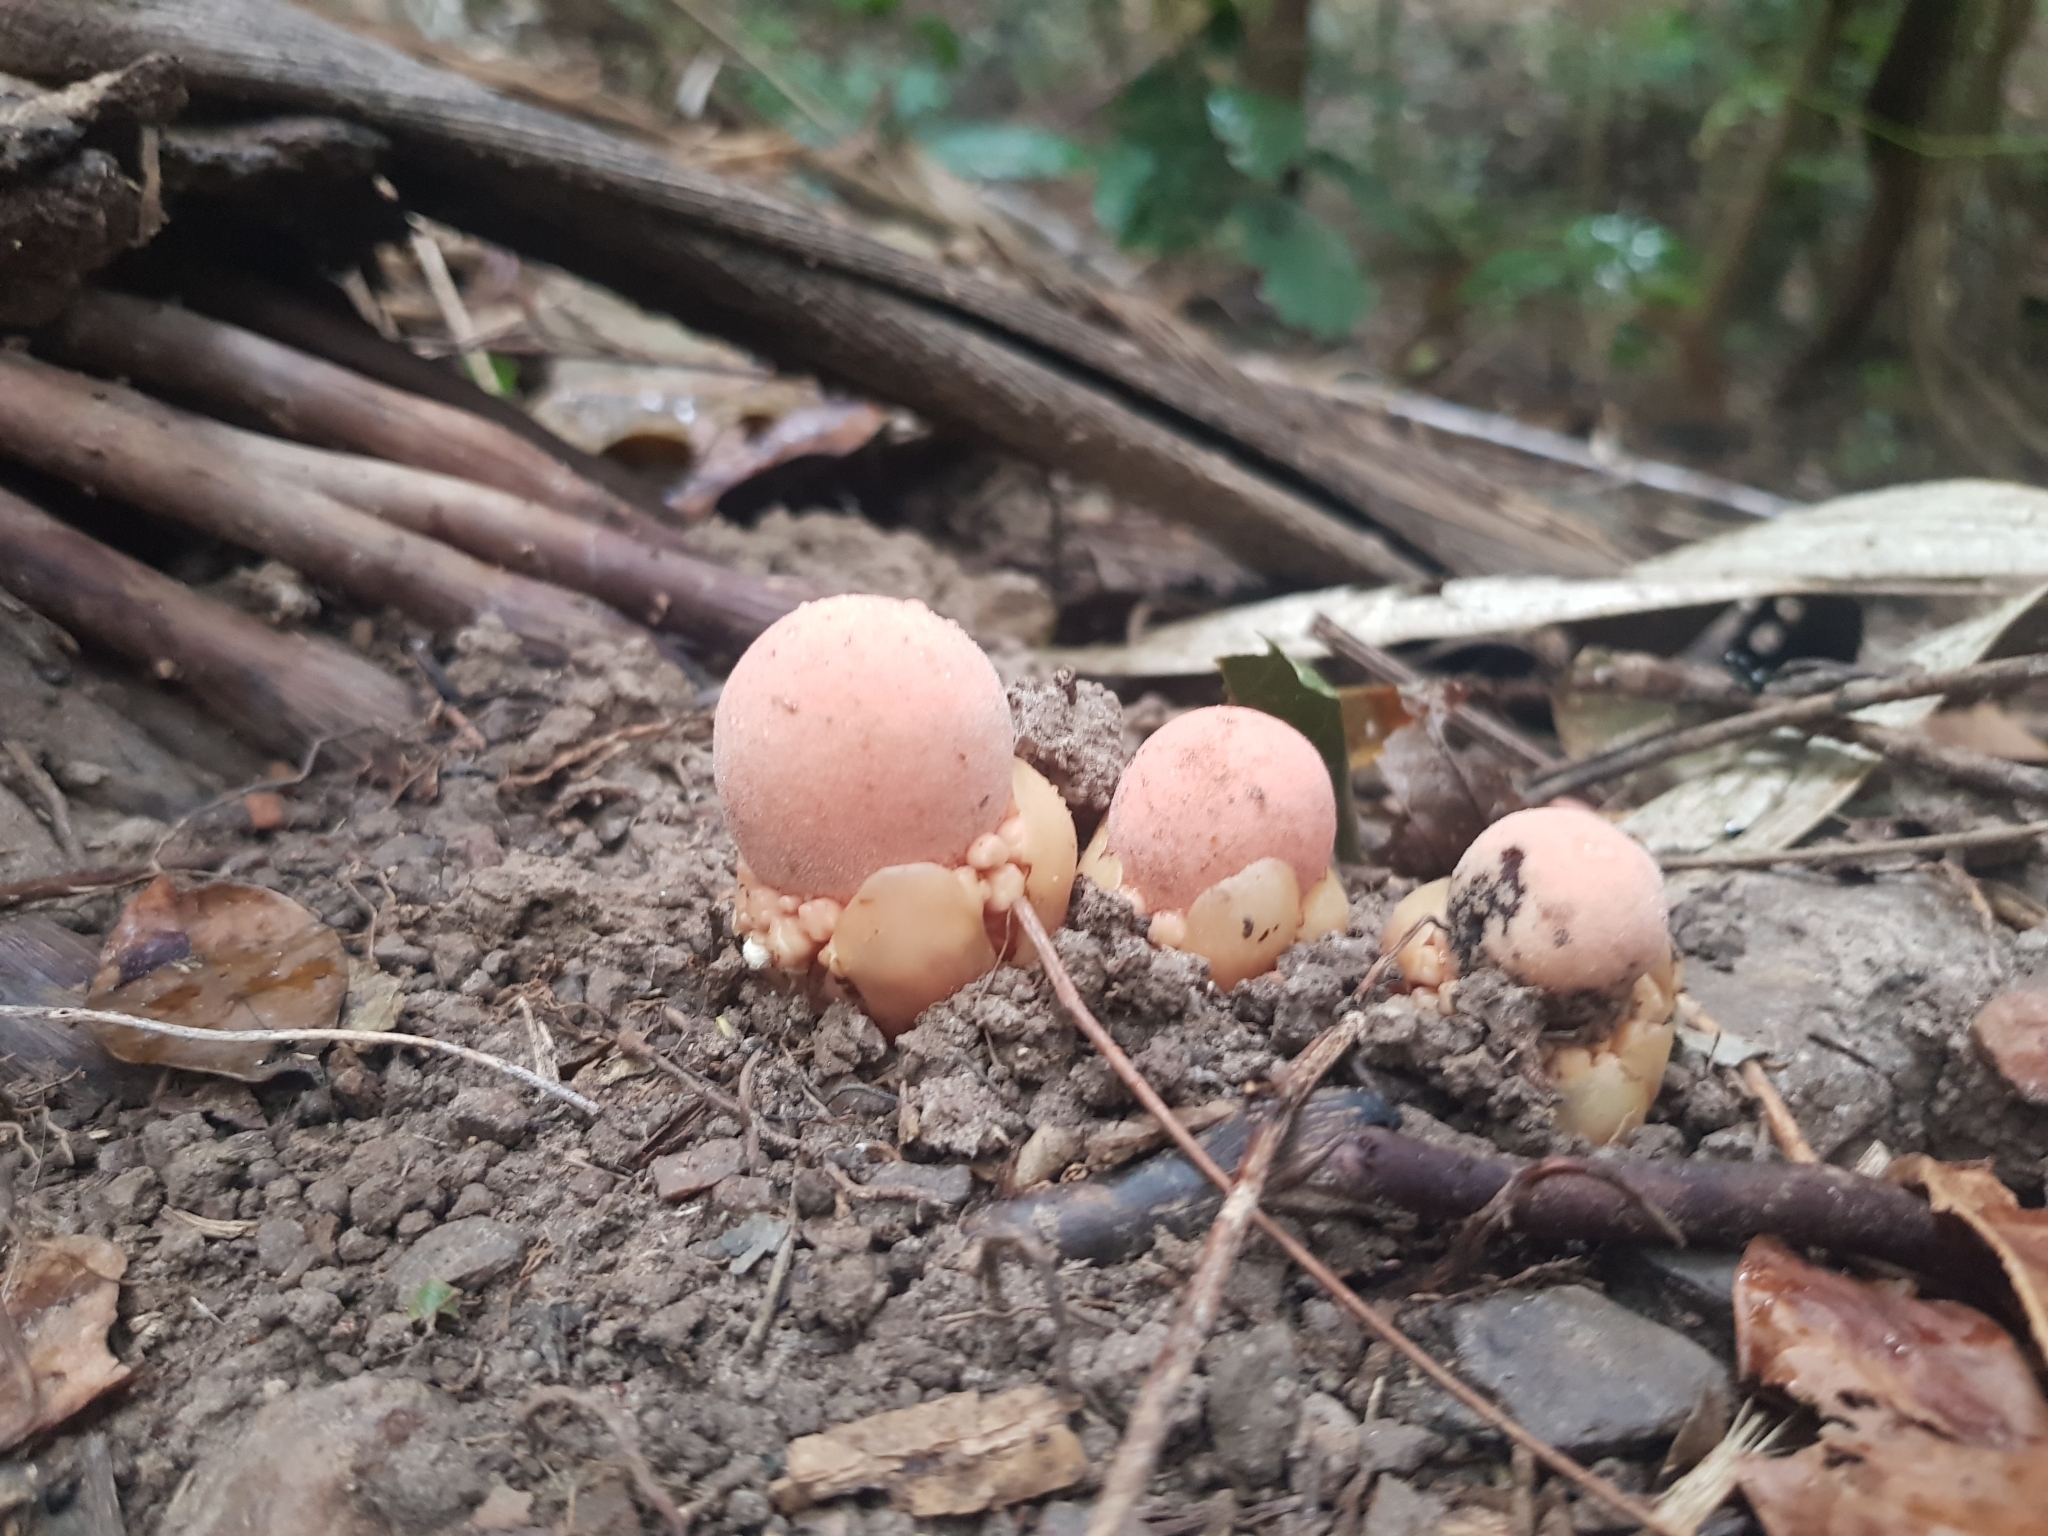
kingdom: Plantae
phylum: Tracheophyta
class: Magnoliopsida
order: Santalales
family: Balanophoraceae
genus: Balanophora
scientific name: Balanophora fungosa
